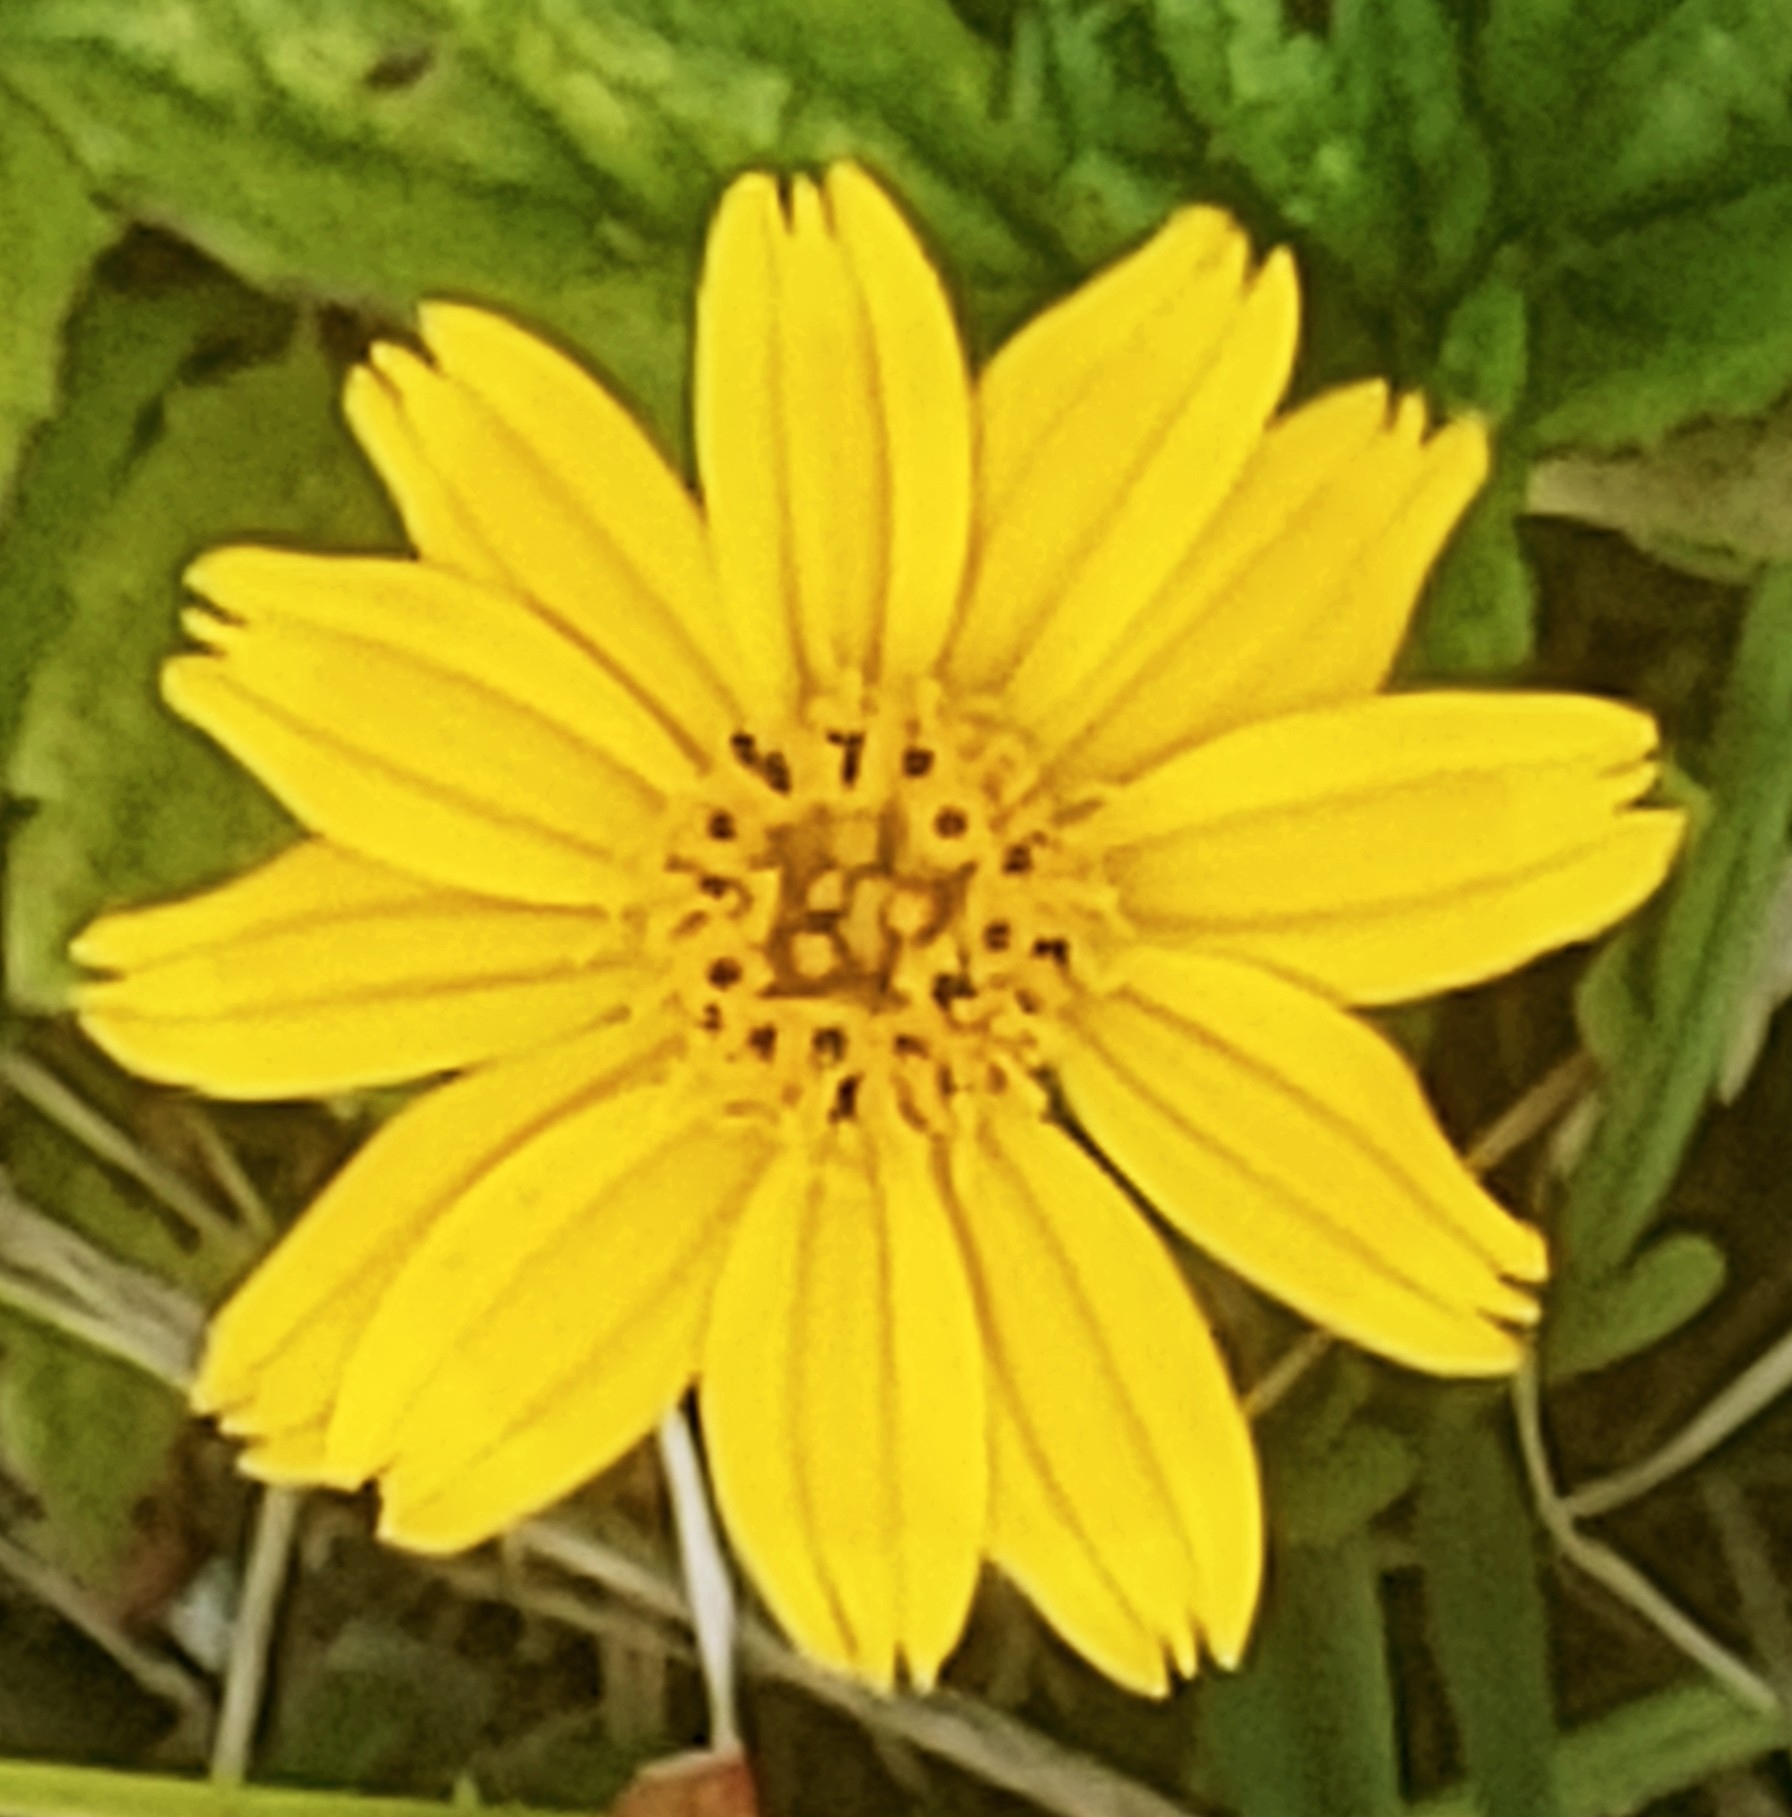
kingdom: Plantae
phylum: Tracheophyta
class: Magnoliopsida
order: Asterales
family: Asteraceae
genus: Sphagneticola
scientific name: Sphagneticola trilobata
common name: Bay biscayne creeping-oxeye
